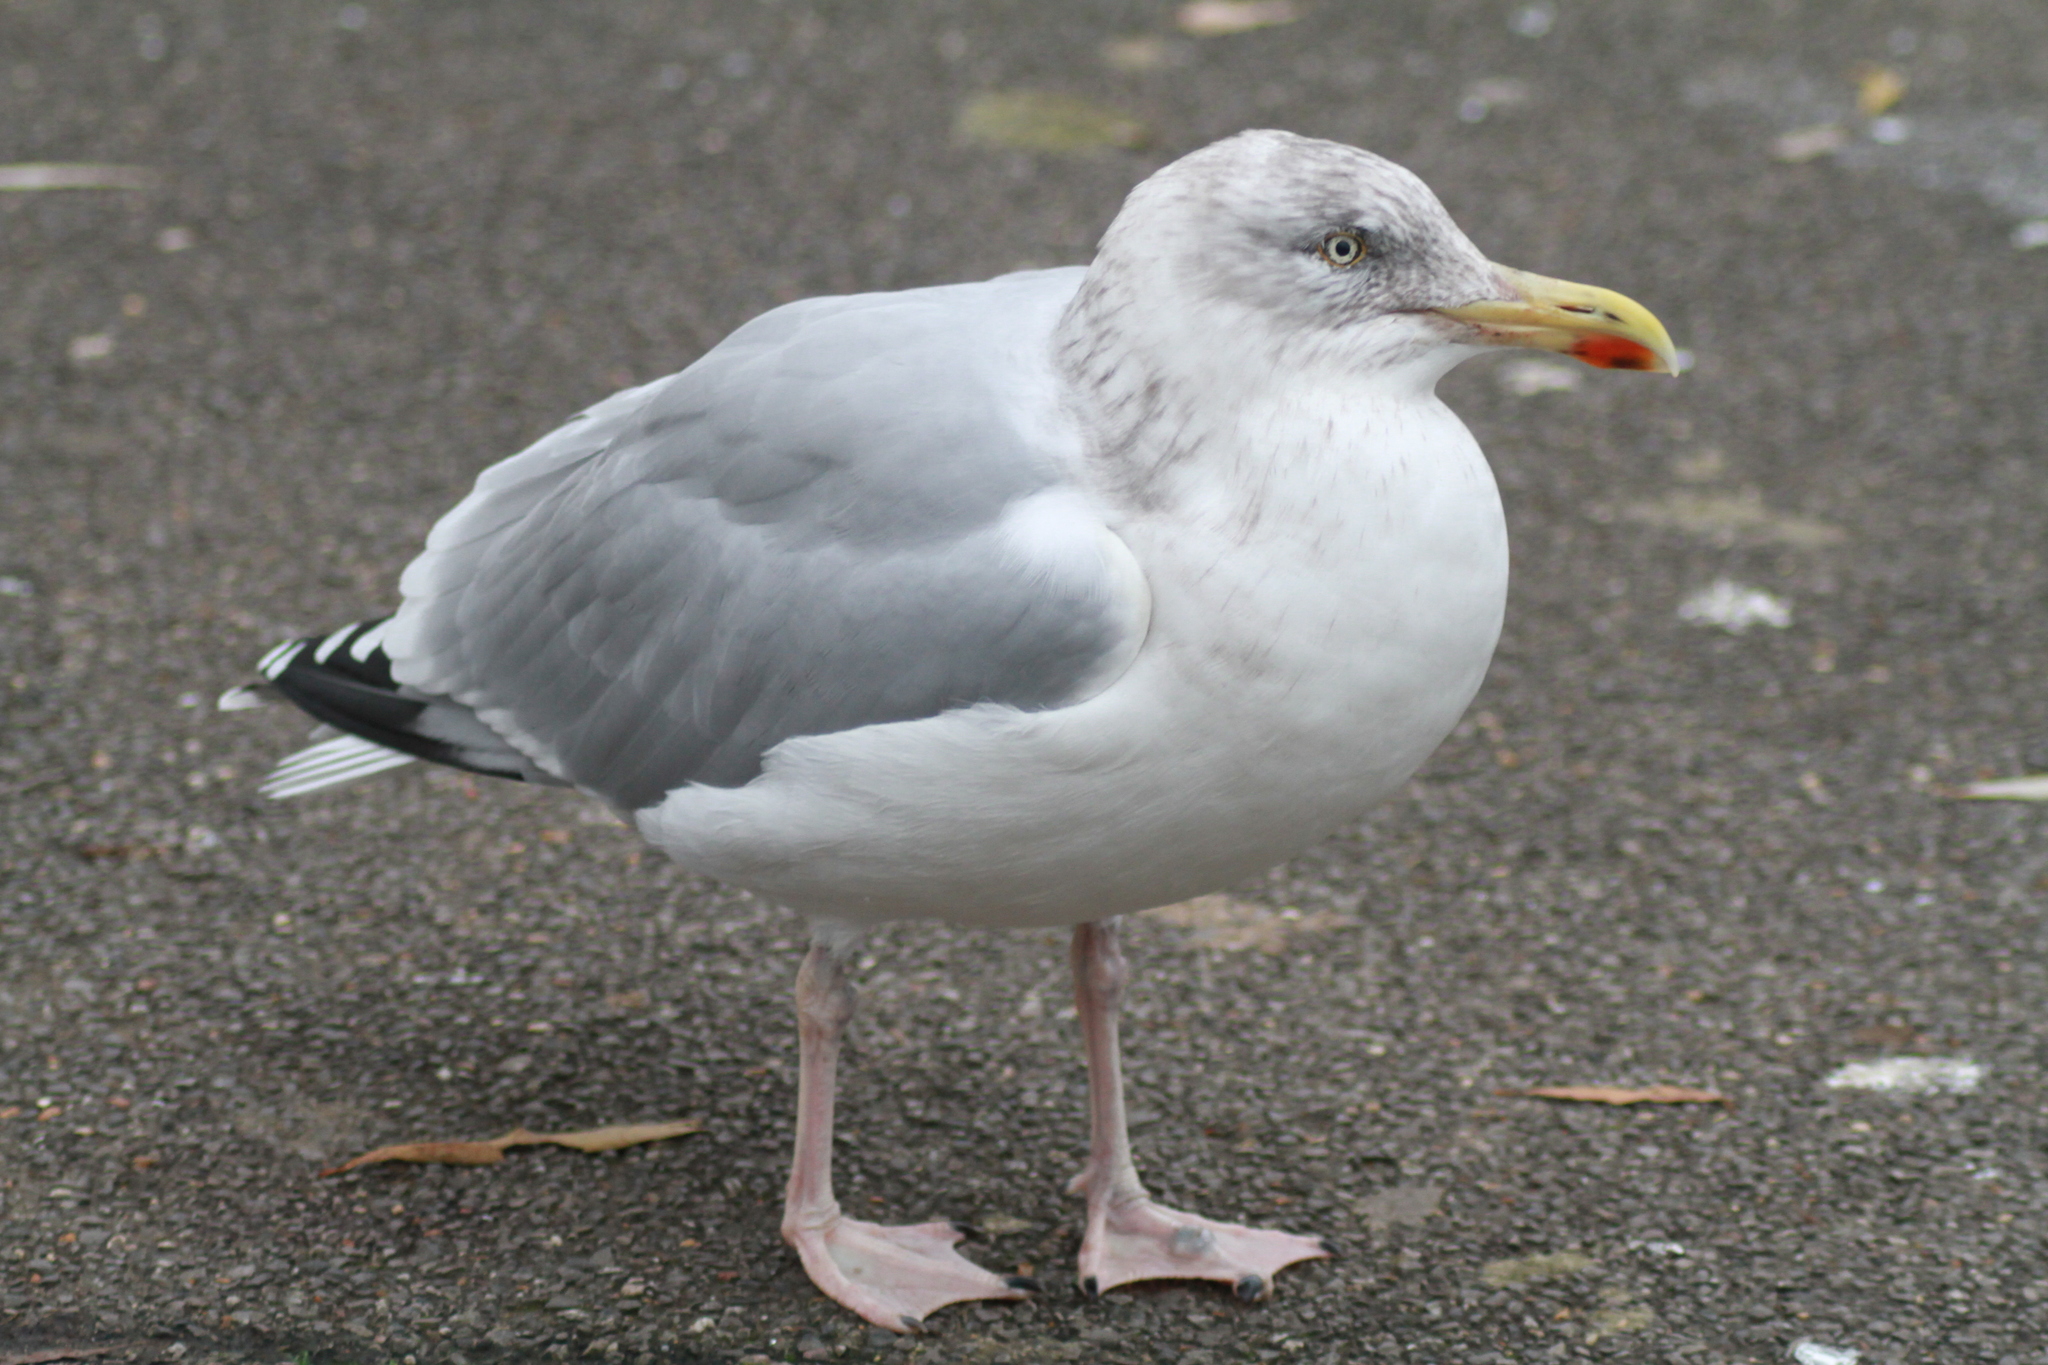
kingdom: Animalia
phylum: Chordata
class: Aves
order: Charadriiformes
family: Laridae
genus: Larus
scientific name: Larus argentatus
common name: Herring gull
